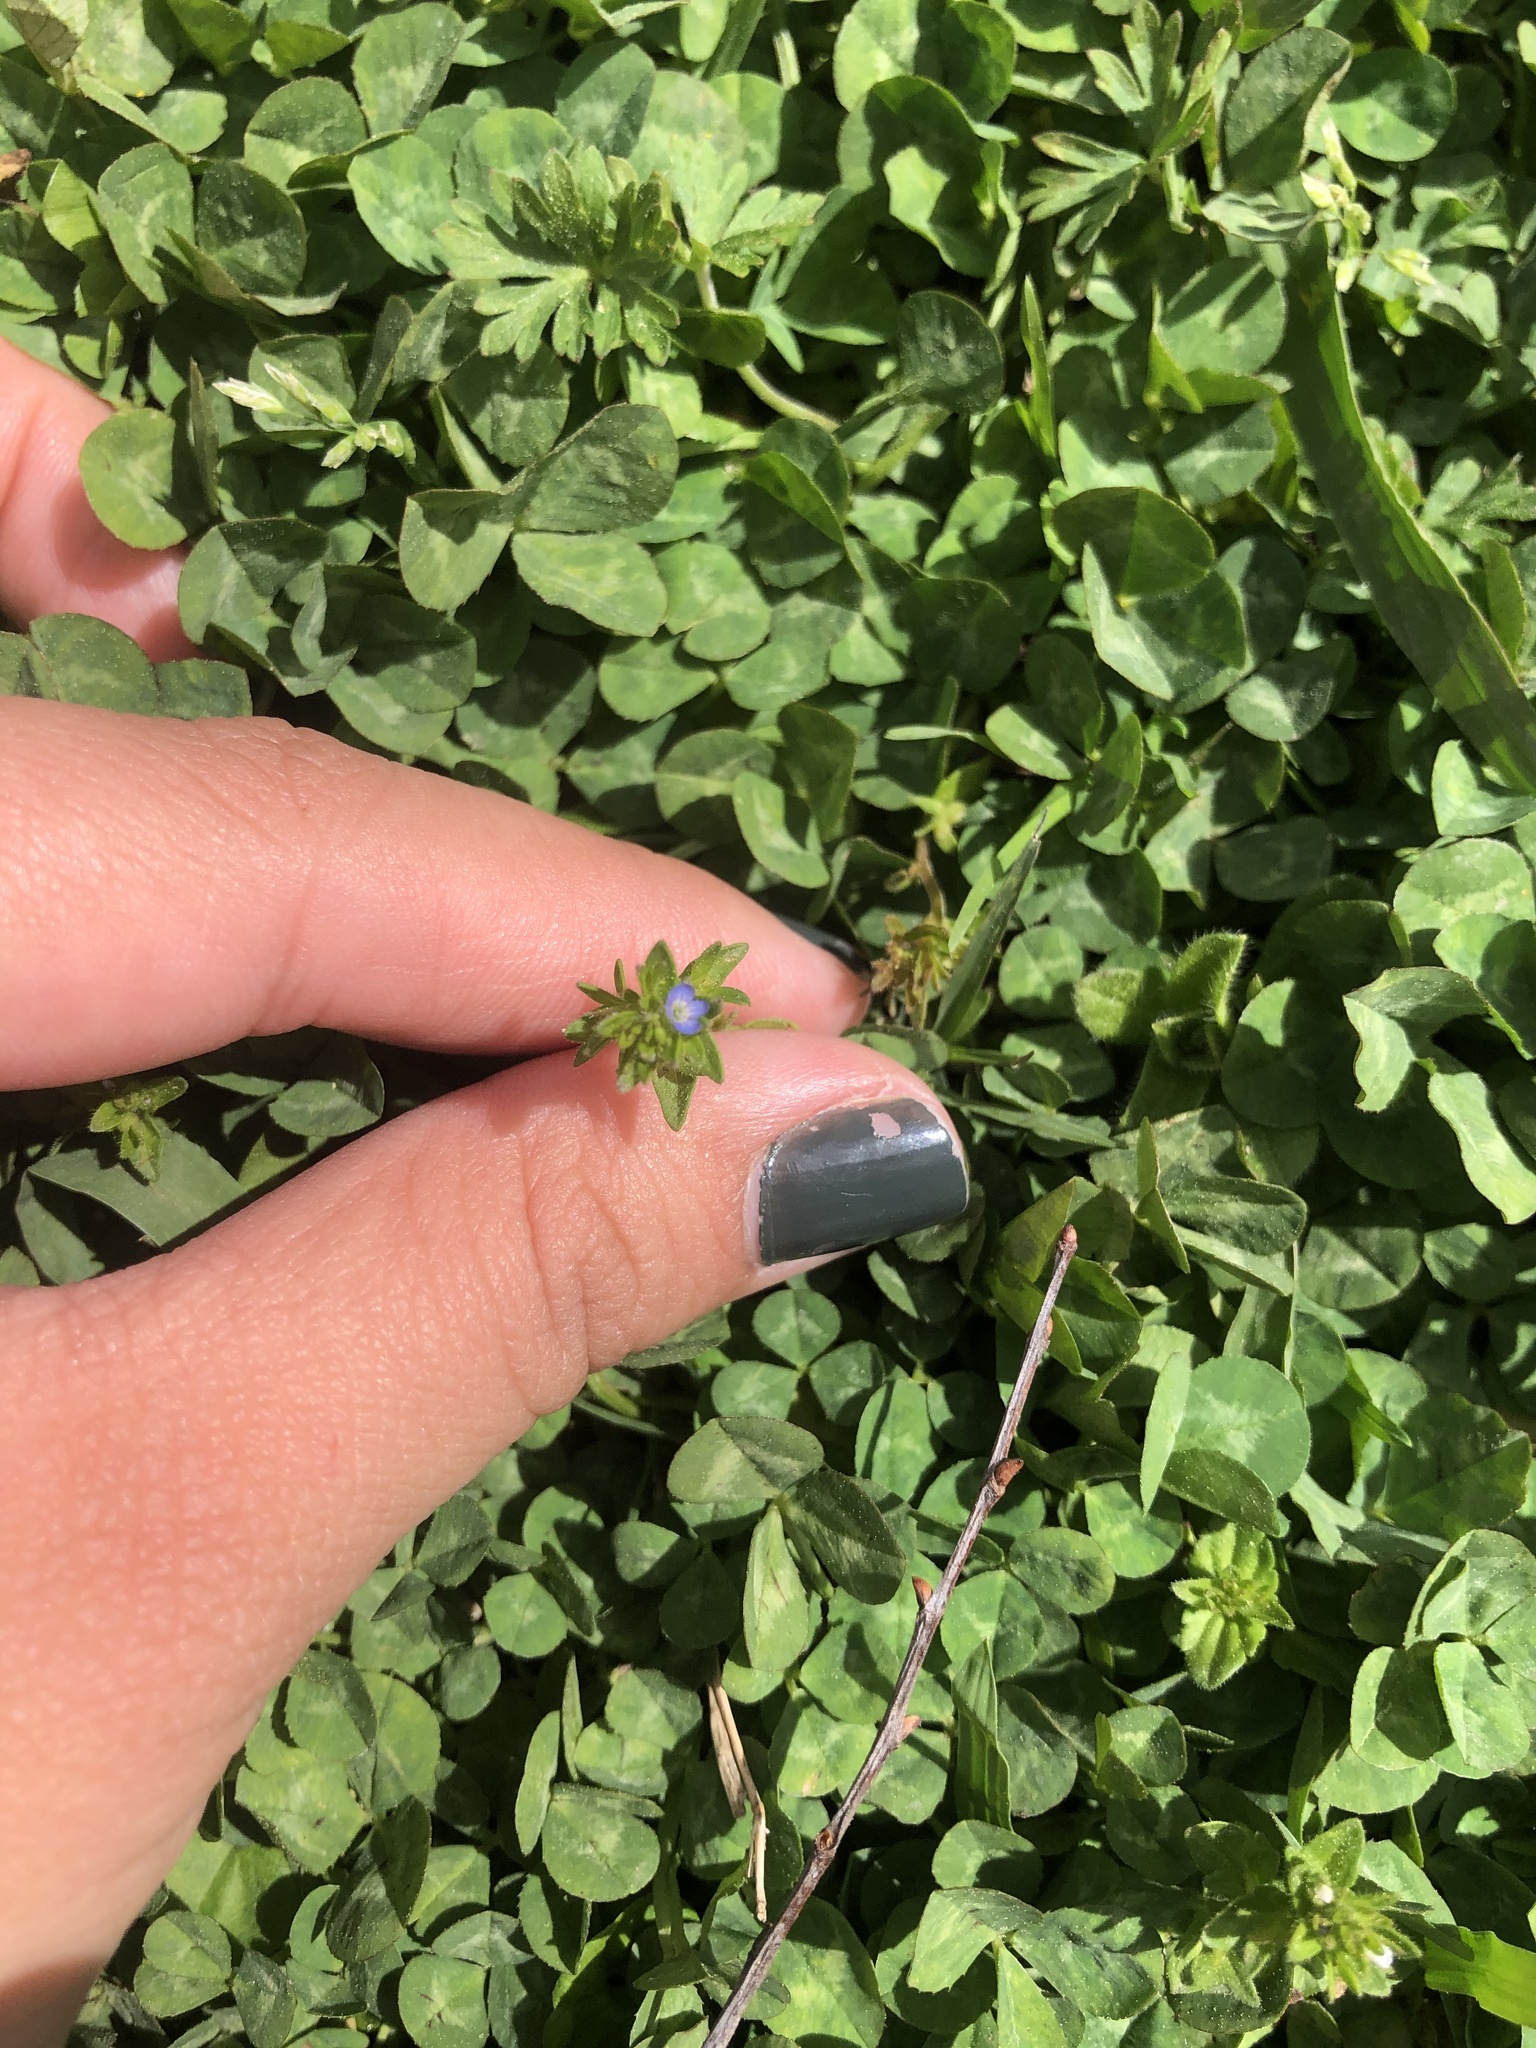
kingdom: Plantae
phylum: Tracheophyta
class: Magnoliopsida
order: Lamiales
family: Plantaginaceae
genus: Veronica
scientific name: Veronica arvensis
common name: Corn speedwell
